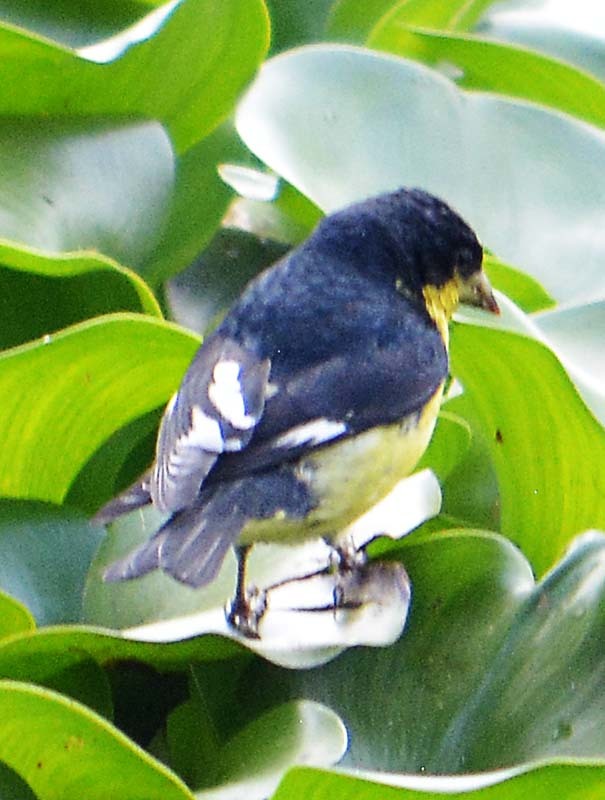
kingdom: Animalia
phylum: Chordata
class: Aves
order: Passeriformes
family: Fringillidae
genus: Spinus
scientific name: Spinus psaltria
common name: Lesser goldfinch
